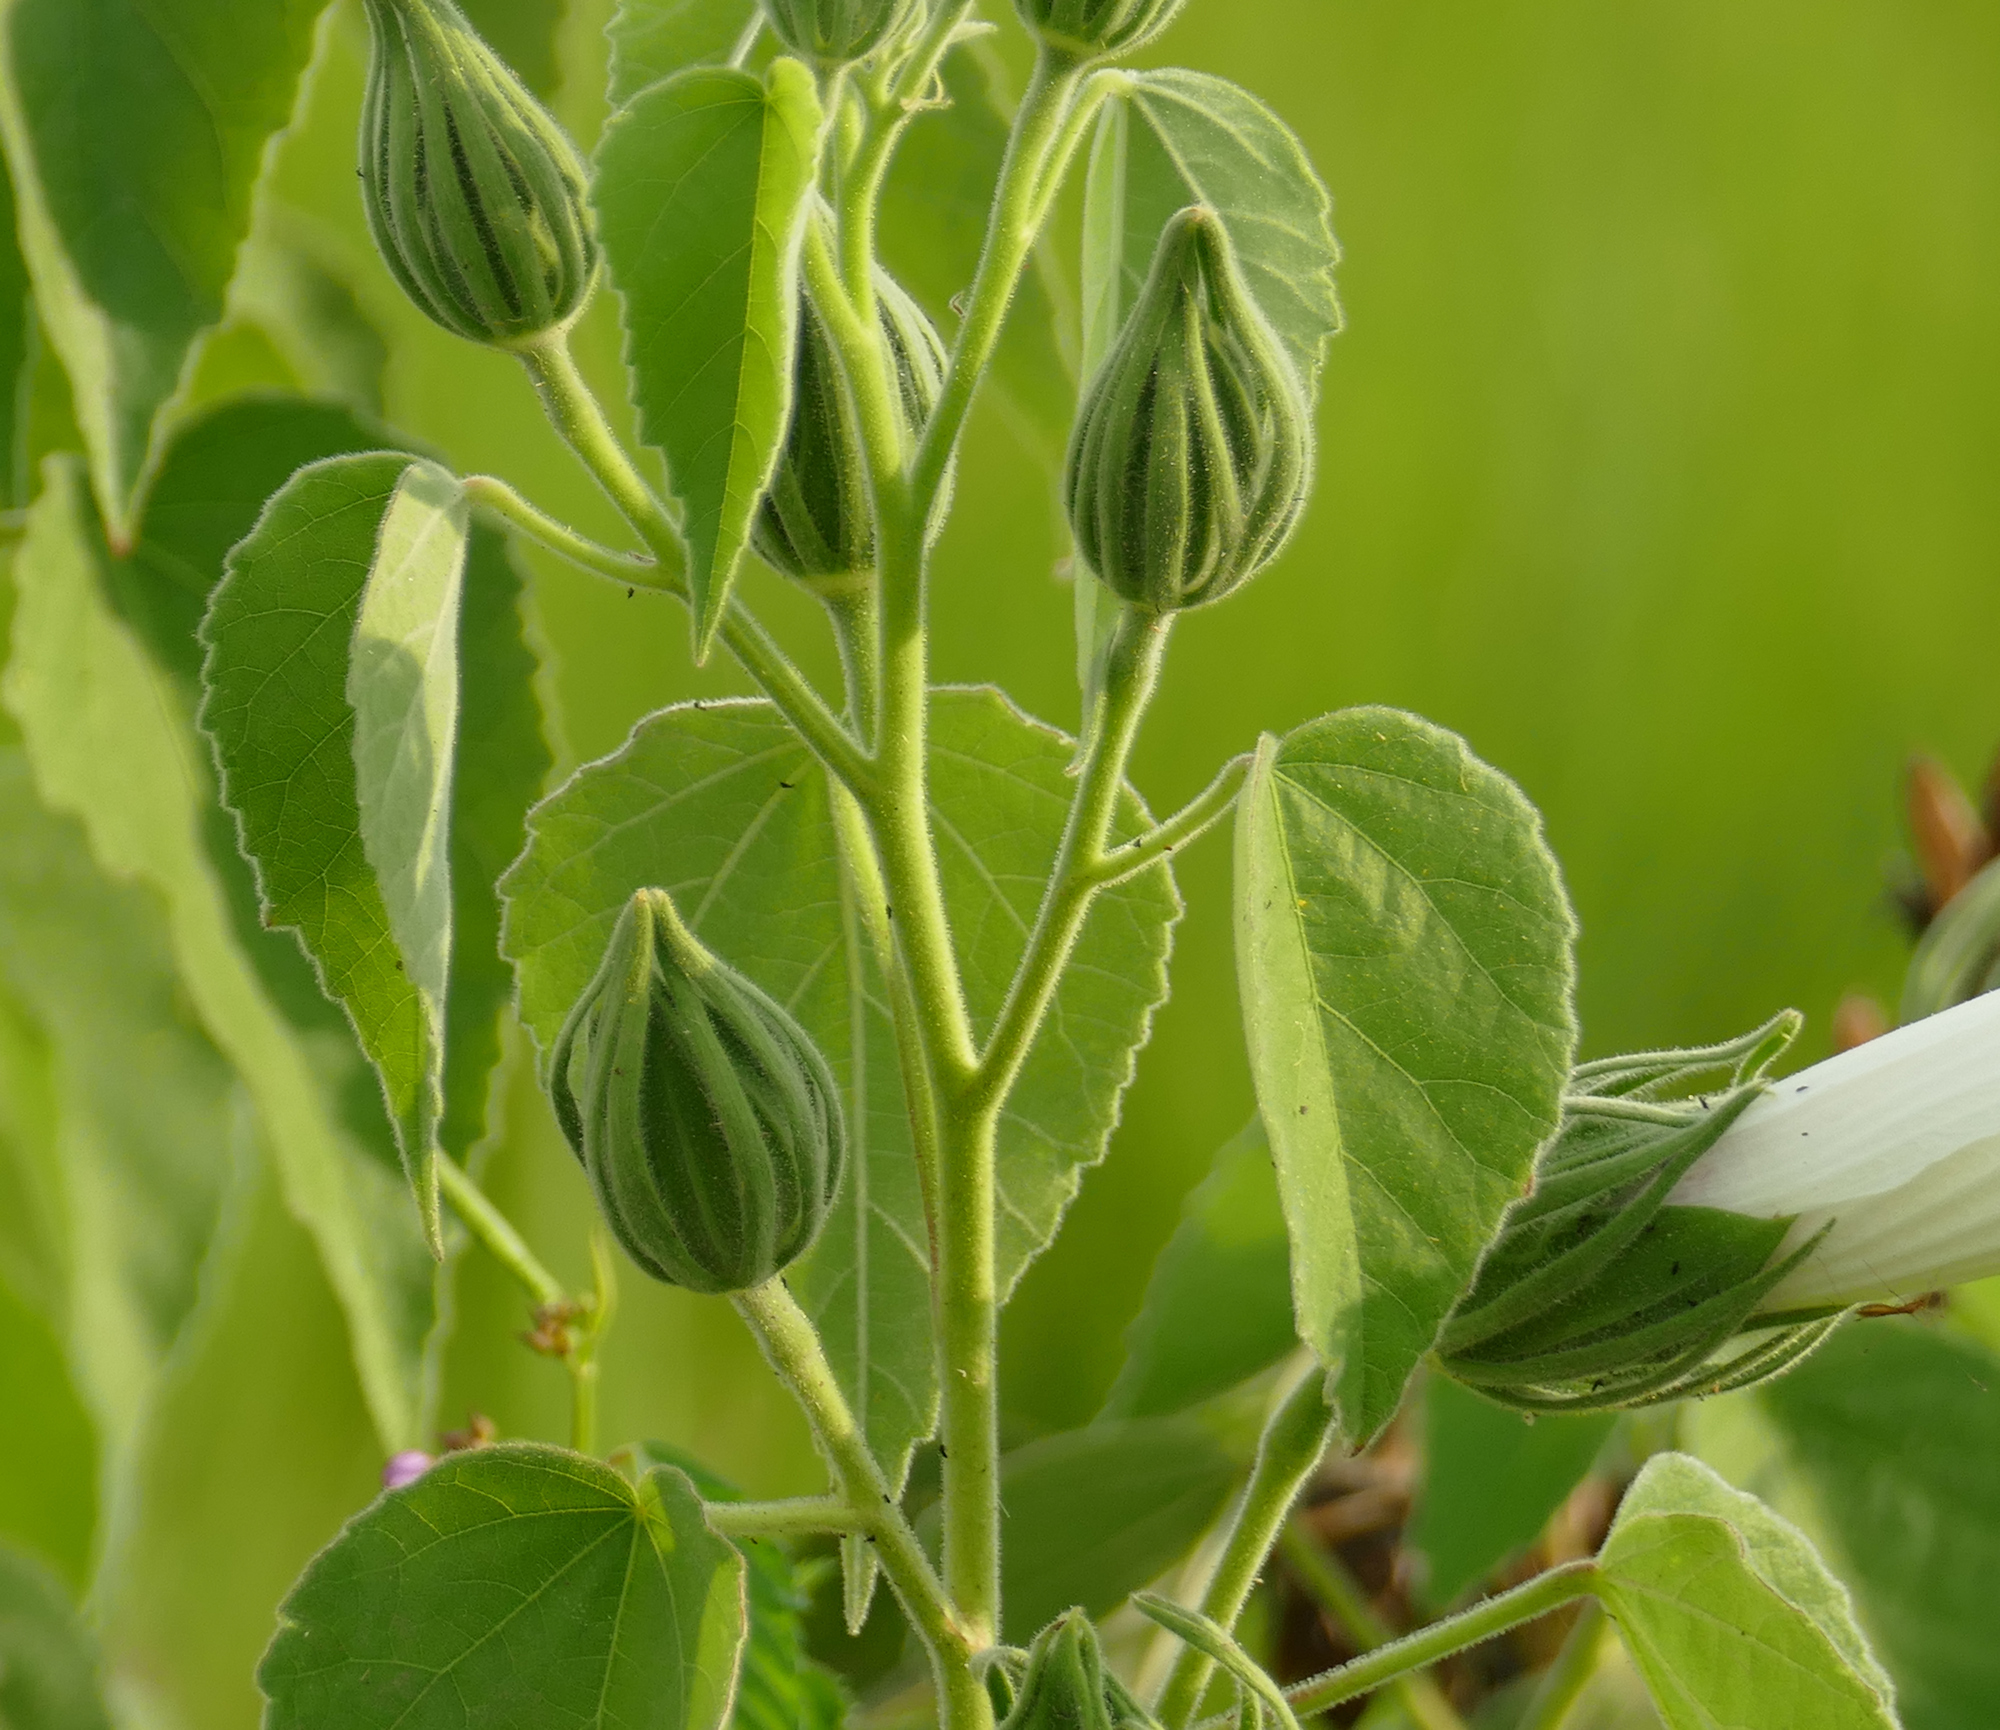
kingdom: Plantae
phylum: Tracheophyta
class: Magnoliopsida
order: Malvales
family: Malvaceae
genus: Hibiscus
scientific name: Hibiscus moscheutos
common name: Common rose-mallow
